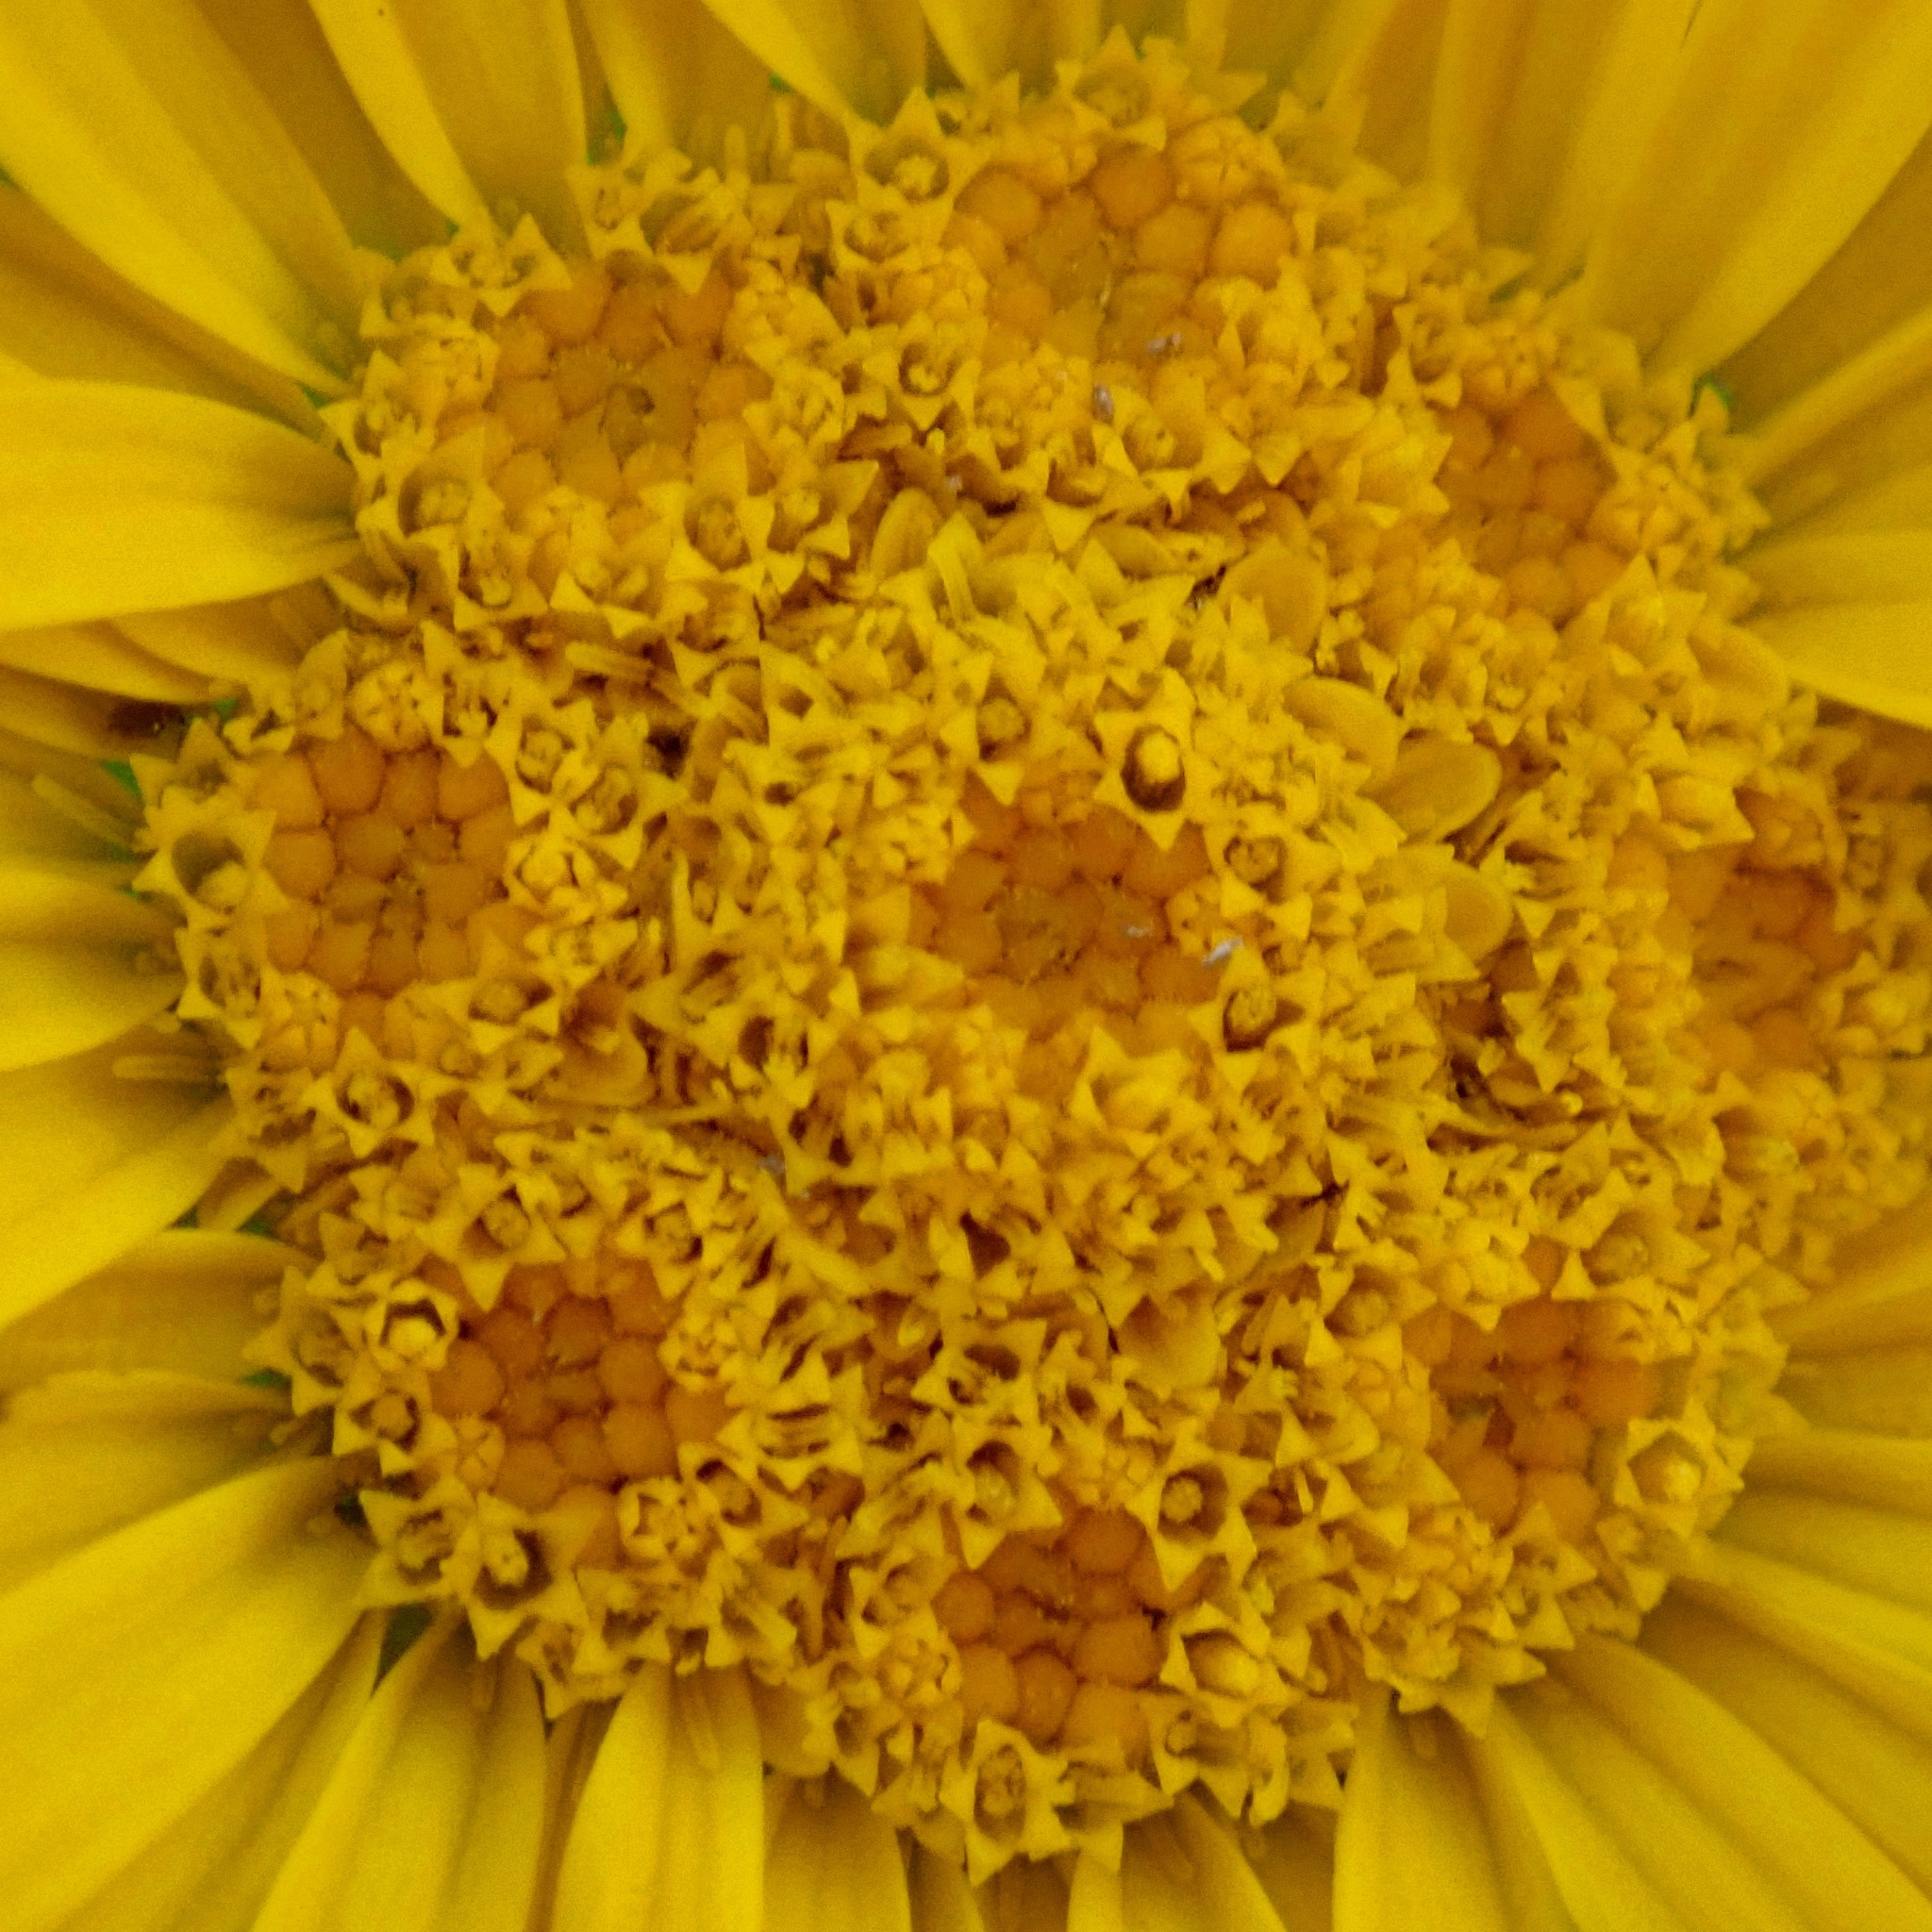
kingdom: Plantae
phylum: Tracheophyta
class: Magnoliopsida
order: Asterales
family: Asteraceae
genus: Cullumia
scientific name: Cullumia carlinoides
